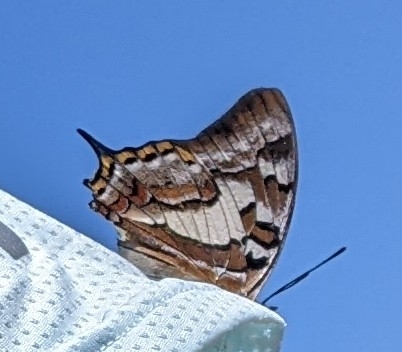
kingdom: Animalia
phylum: Arthropoda
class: Insecta
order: Lepidoptera
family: Nymphalidae
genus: Charaxes
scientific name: Charaxes
